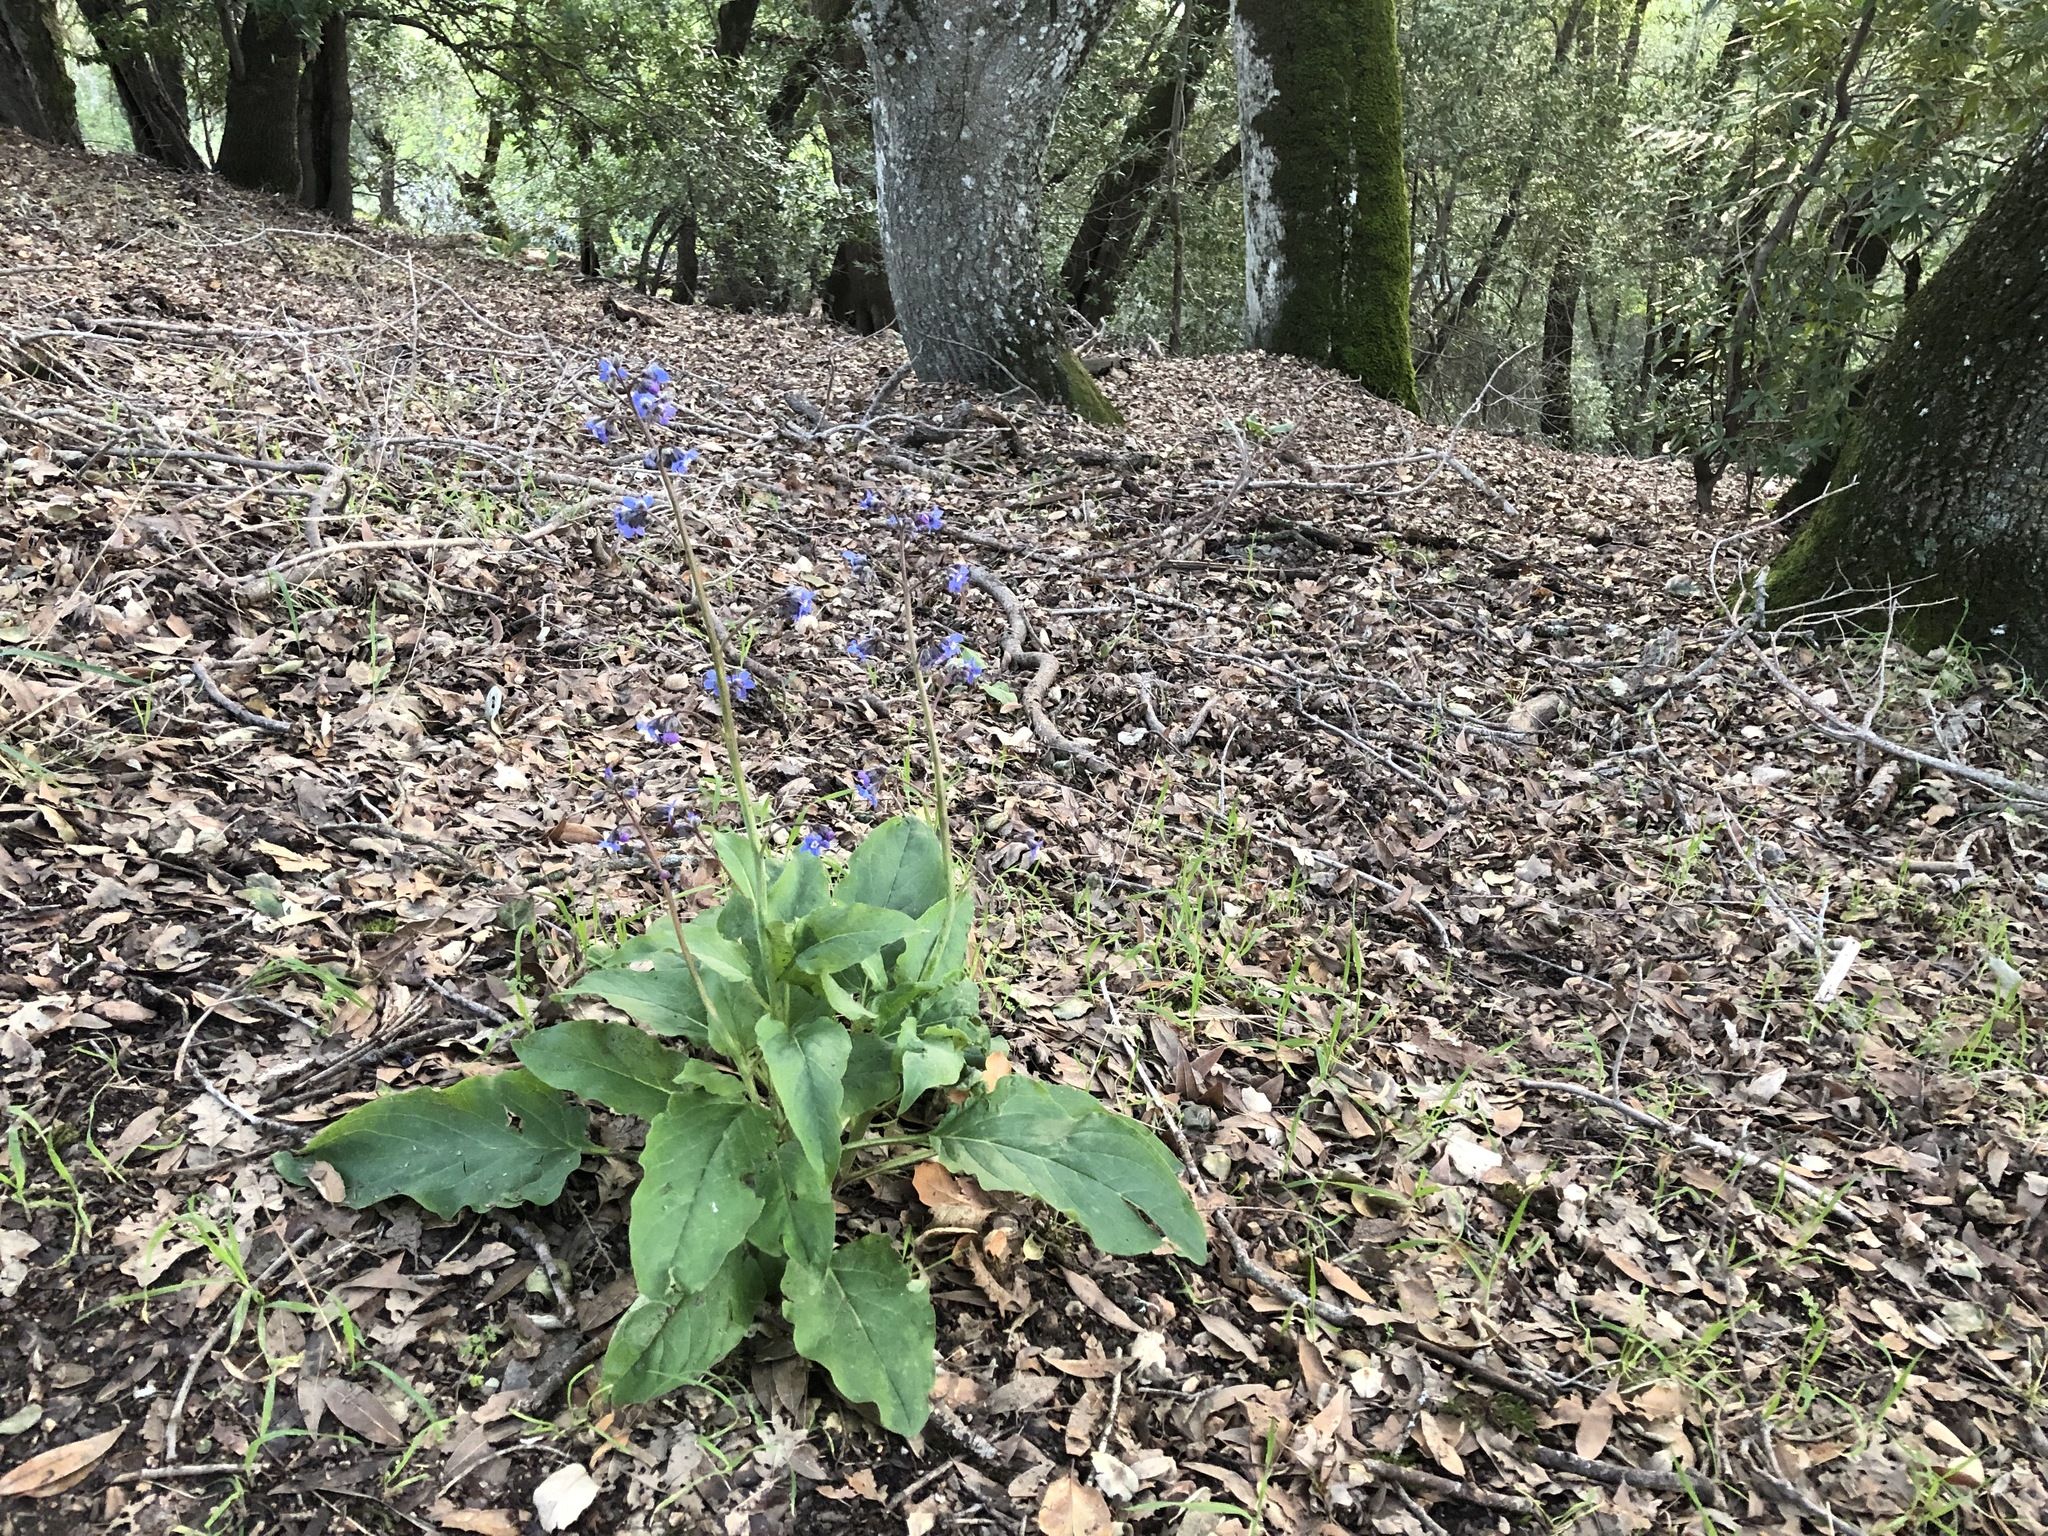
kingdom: Plantae
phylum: Tracheophyta
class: Magnoliopsida
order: Boraginales
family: Boraginaceae
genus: Adelinia
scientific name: Adelinia grande
